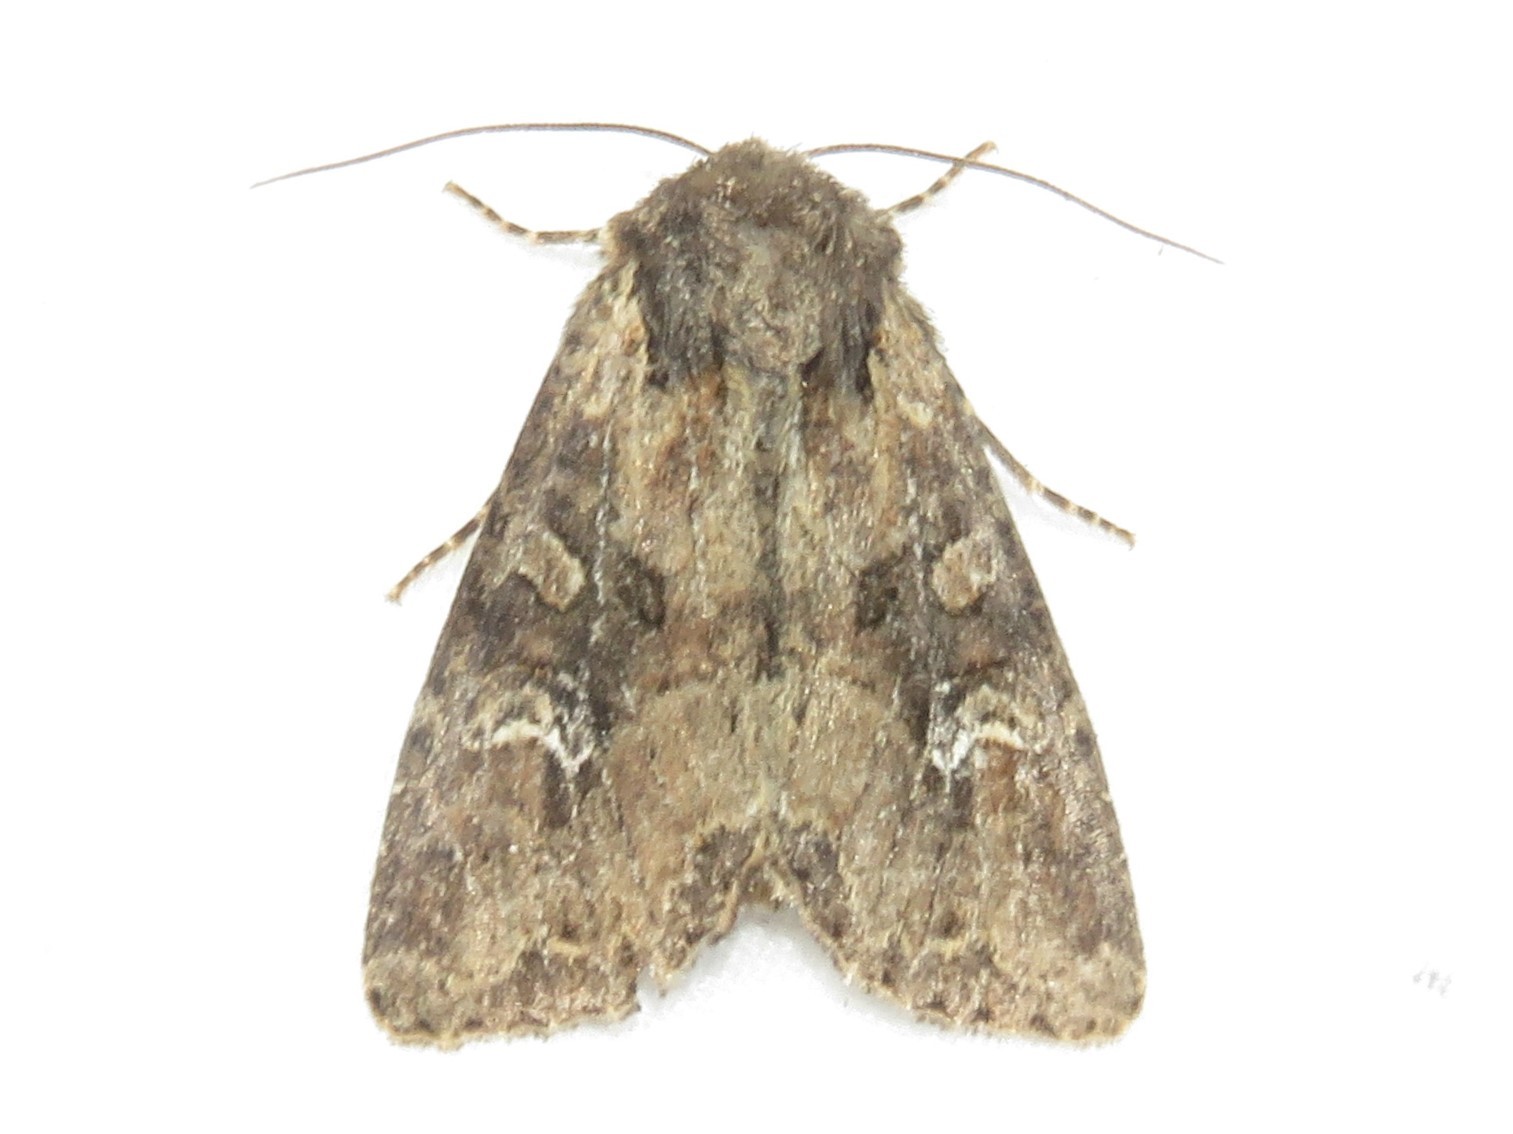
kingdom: Animalia
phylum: Arthropoda
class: Insecta
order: Lepidoptera
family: Noctuidae
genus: Mesapamea
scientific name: Mesapamea fractilinea
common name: Broken-lined brocade moth
